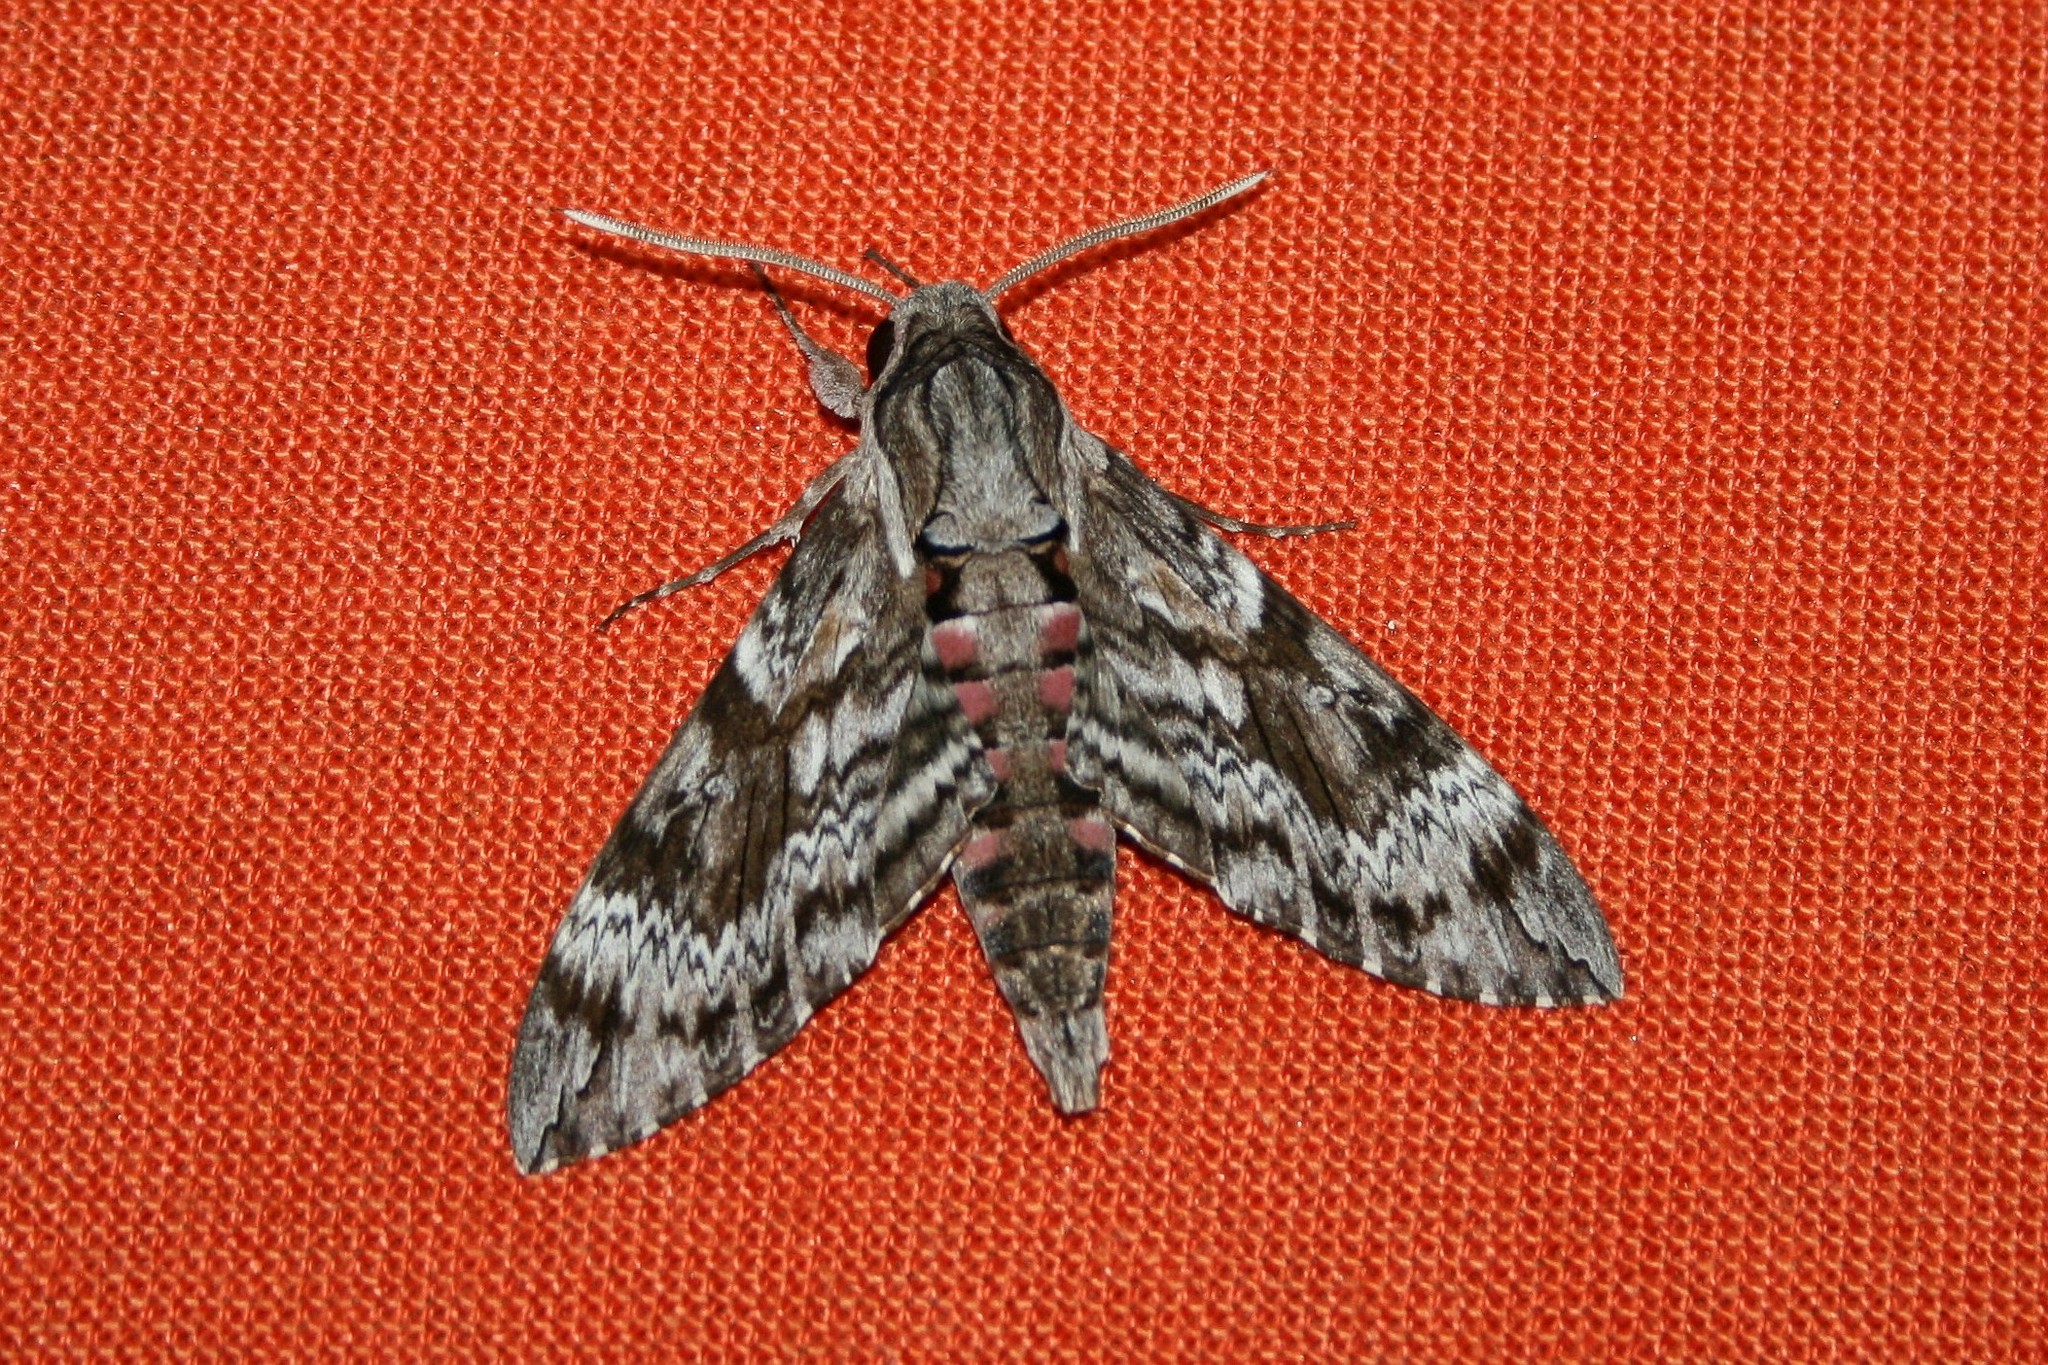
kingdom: Animalia
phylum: Arthropoda
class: Insecta
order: Lepidoptera
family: Sphingidae
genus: Agrius
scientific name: Agrius convolvuli
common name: Convolvulus hawkmoth
